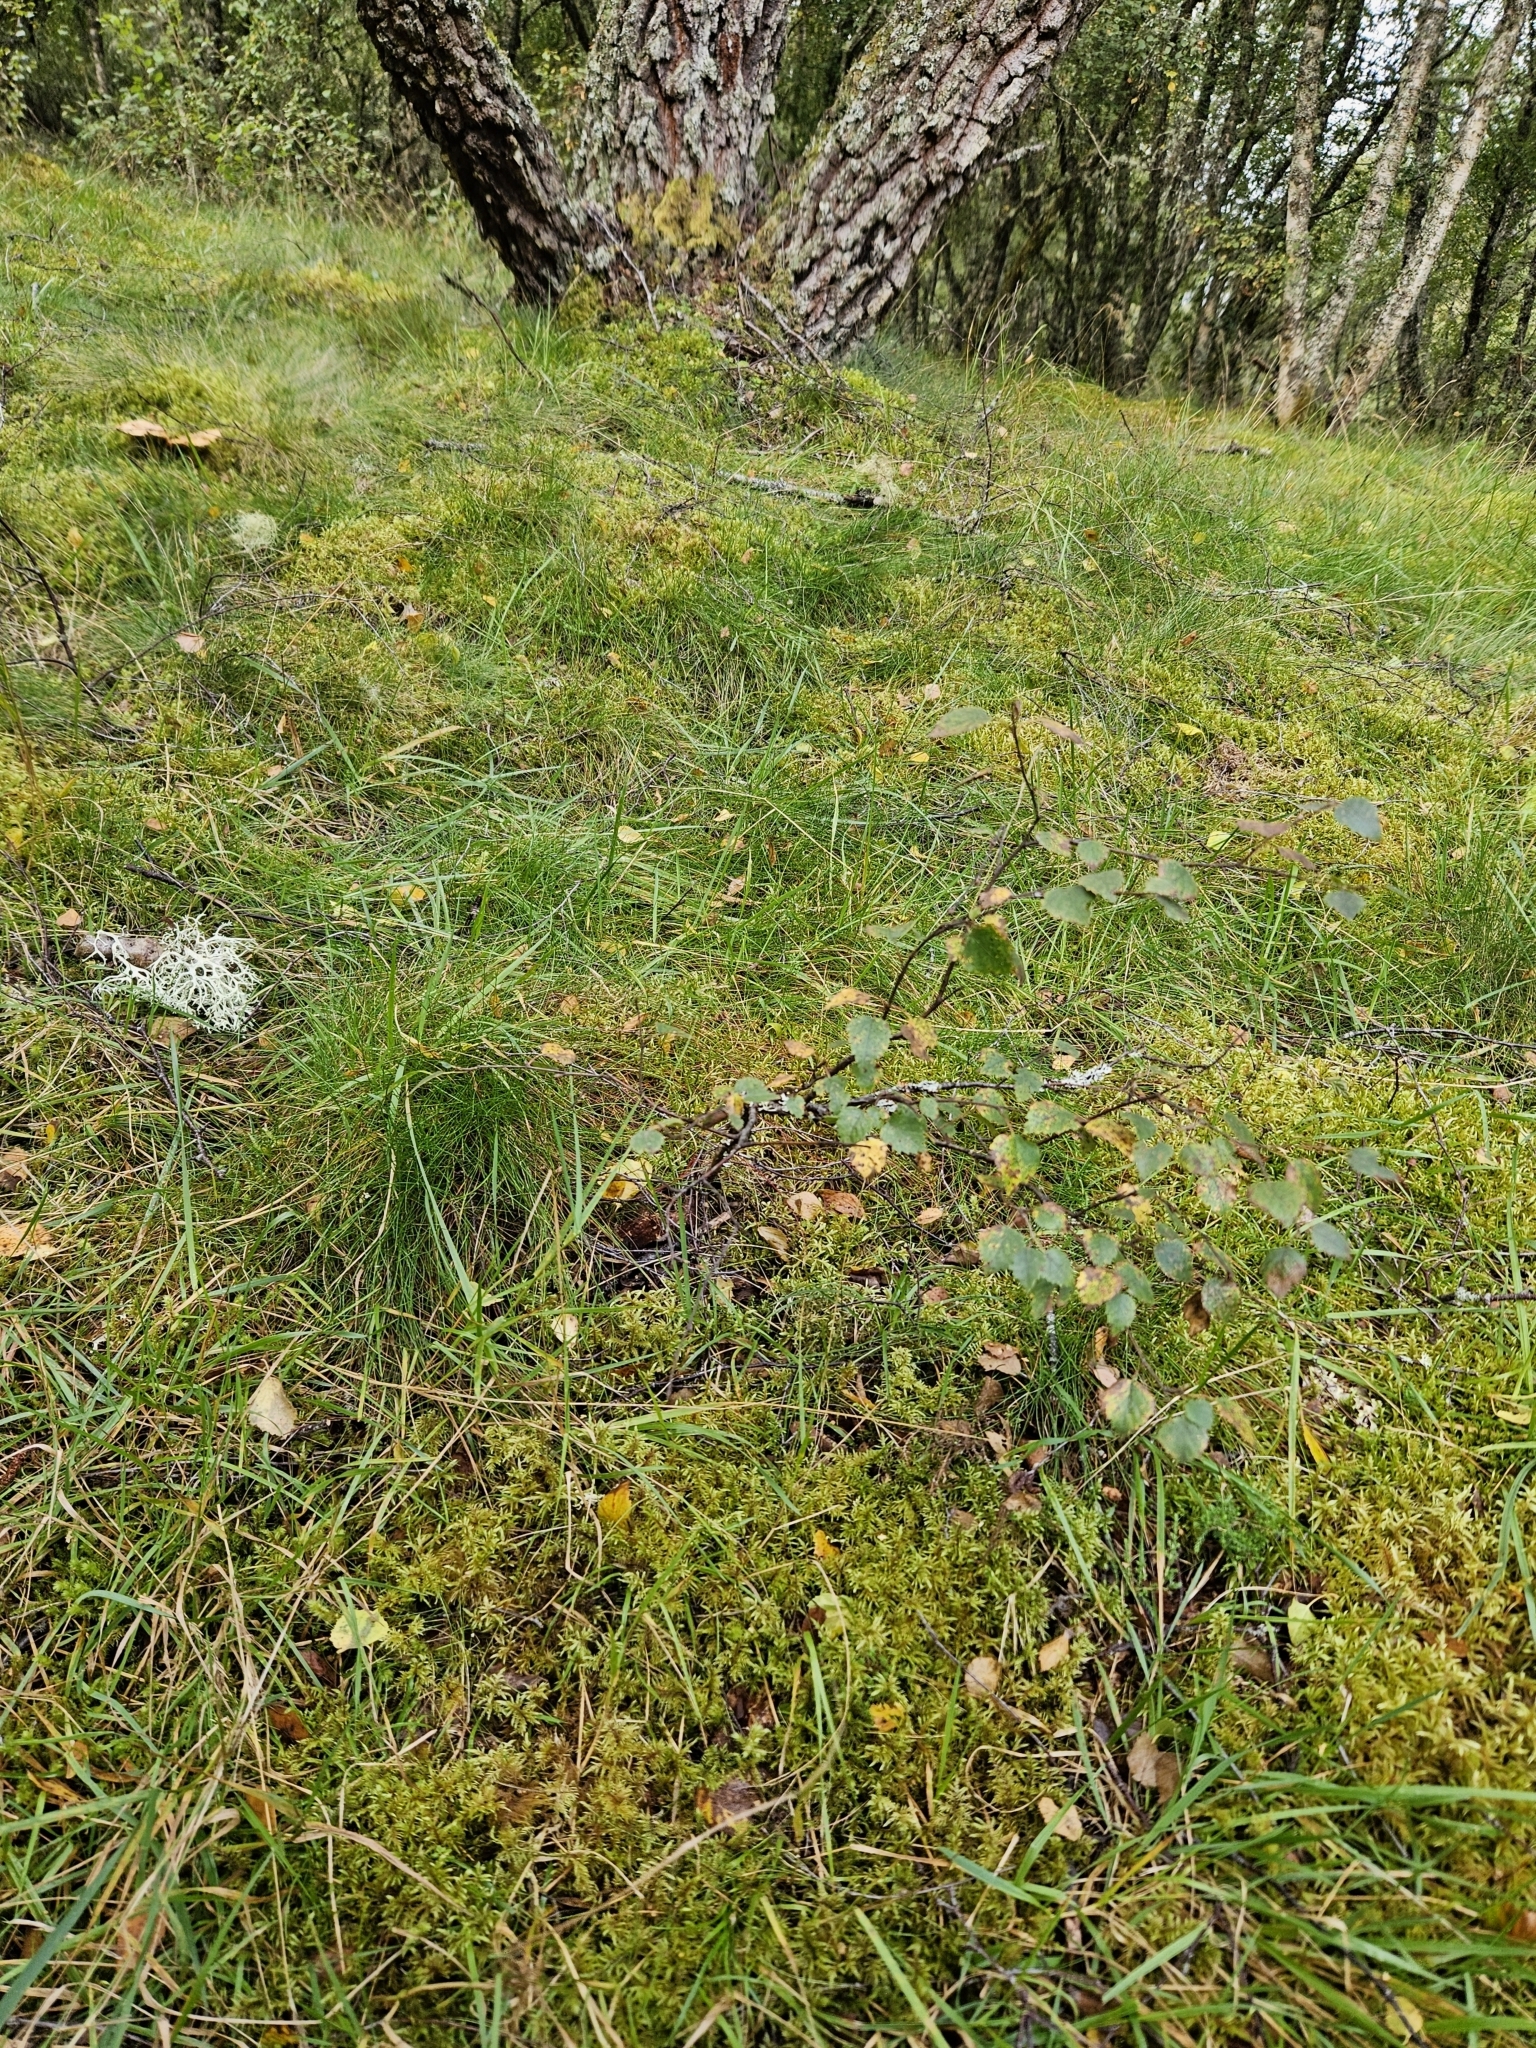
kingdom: Plantae
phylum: Bryophyta
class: Bryopsida
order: Hypnales
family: Hylocomiaceae
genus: Pleurozium
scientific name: Pleurozium schreberi
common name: Red-stemmed feather moss
